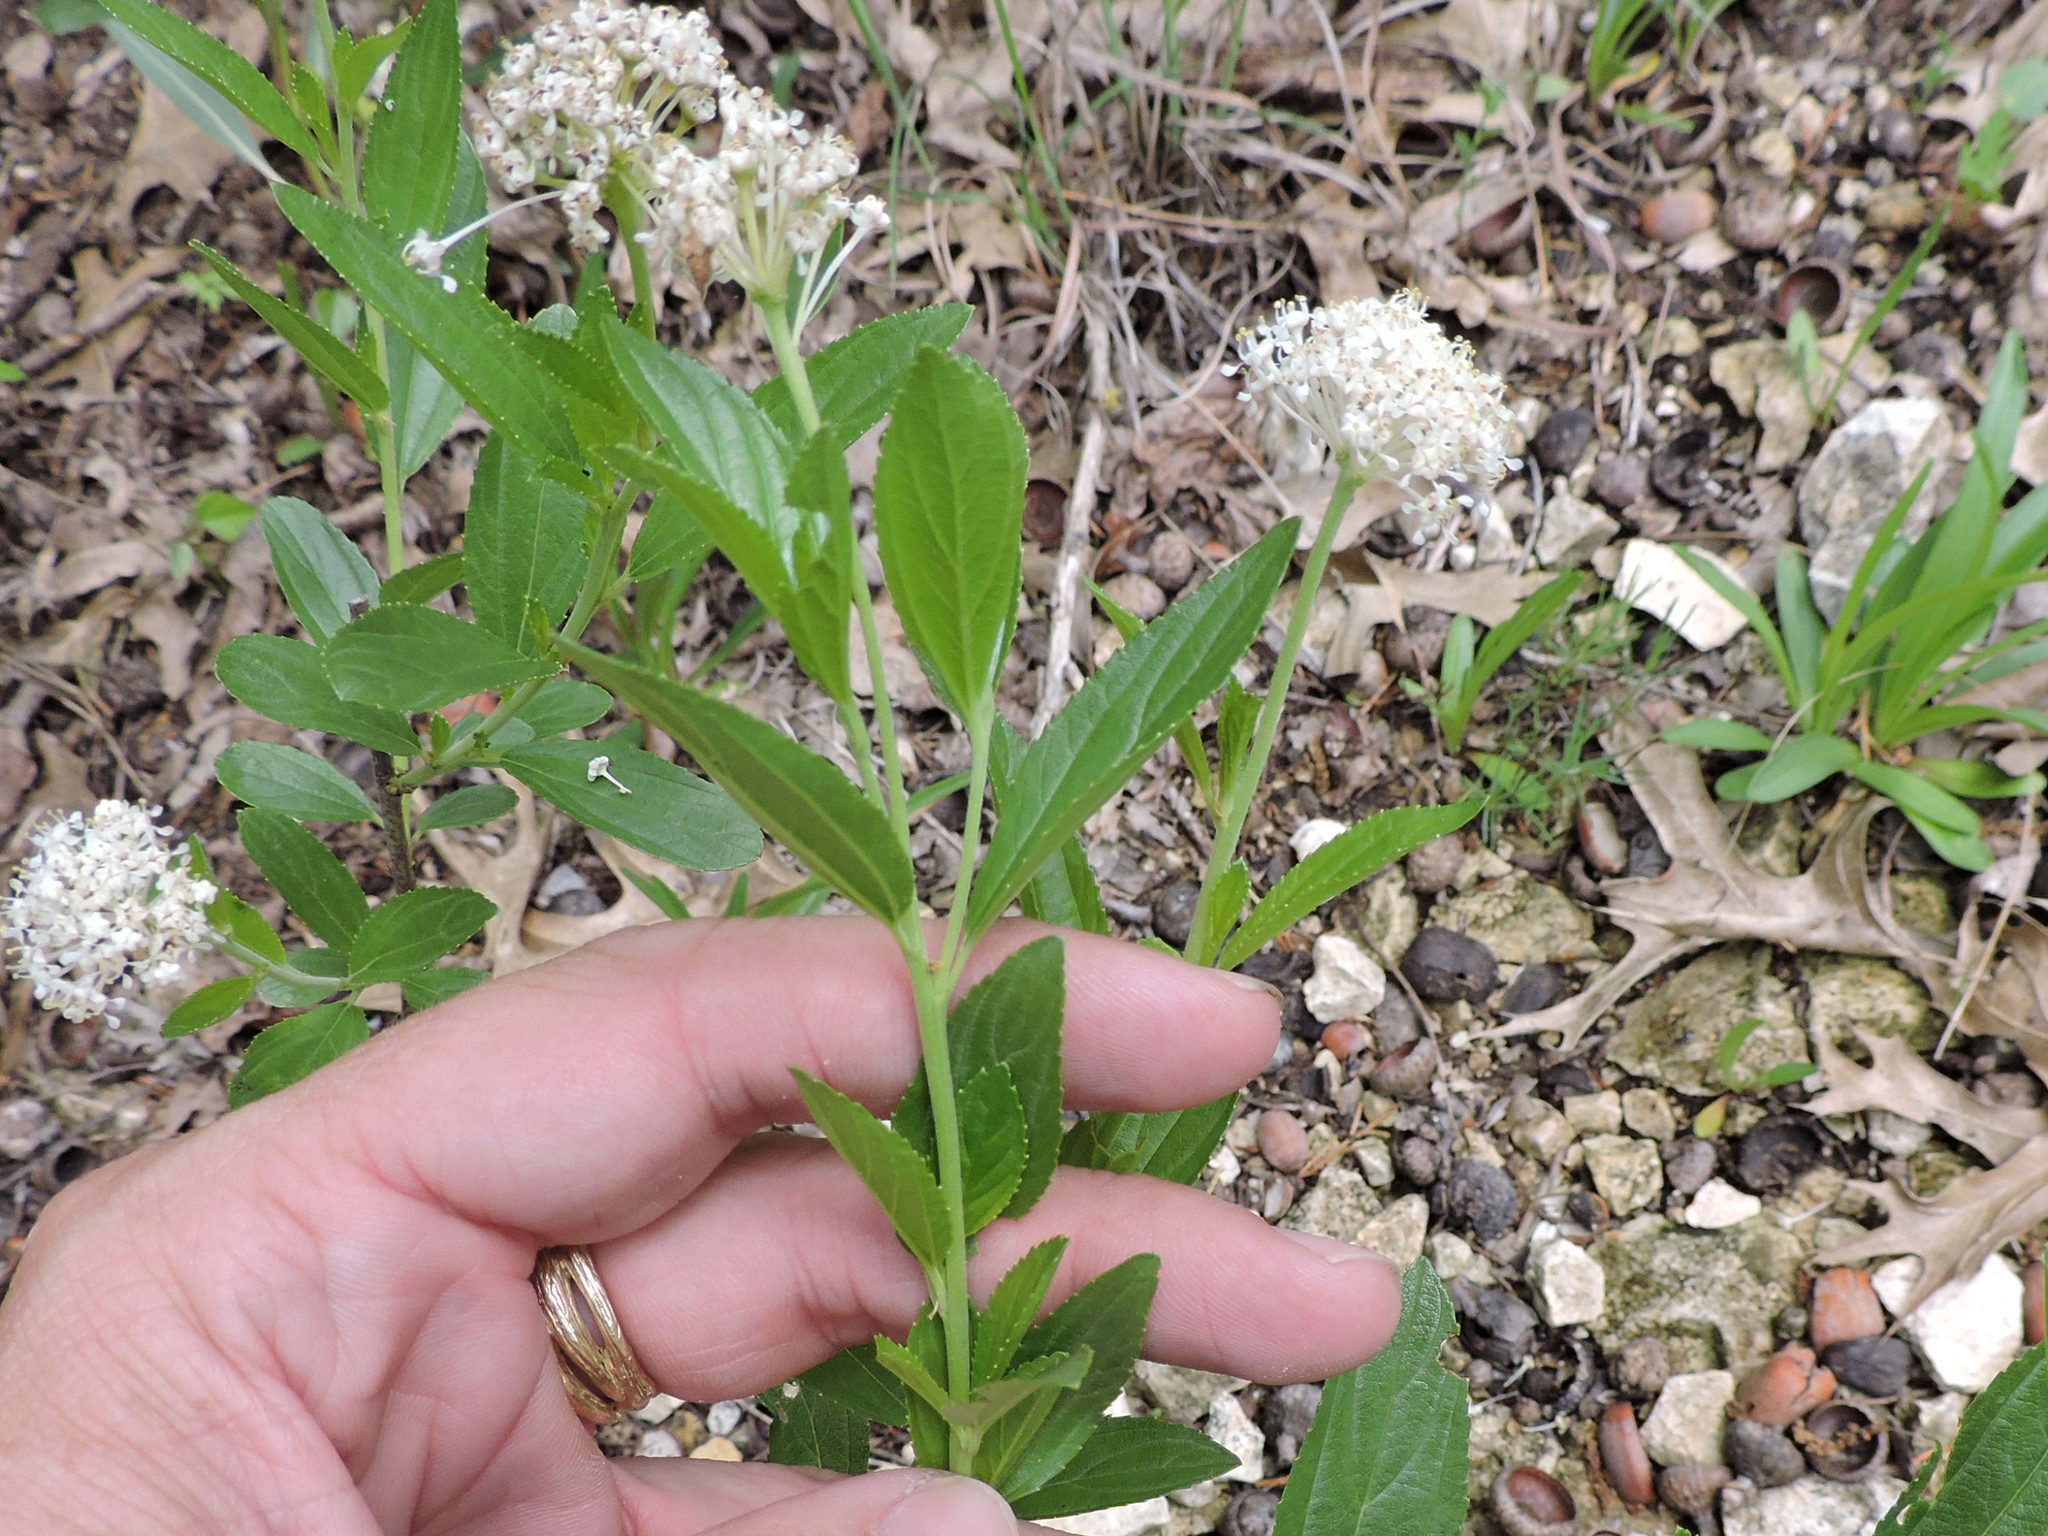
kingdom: Plantae
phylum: Tracheophyta
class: Magnoliopsida
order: Rosales
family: Rhamnaceae
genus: Ceanothus
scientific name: Ceanothus herbaceus
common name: Inland ceanothus
